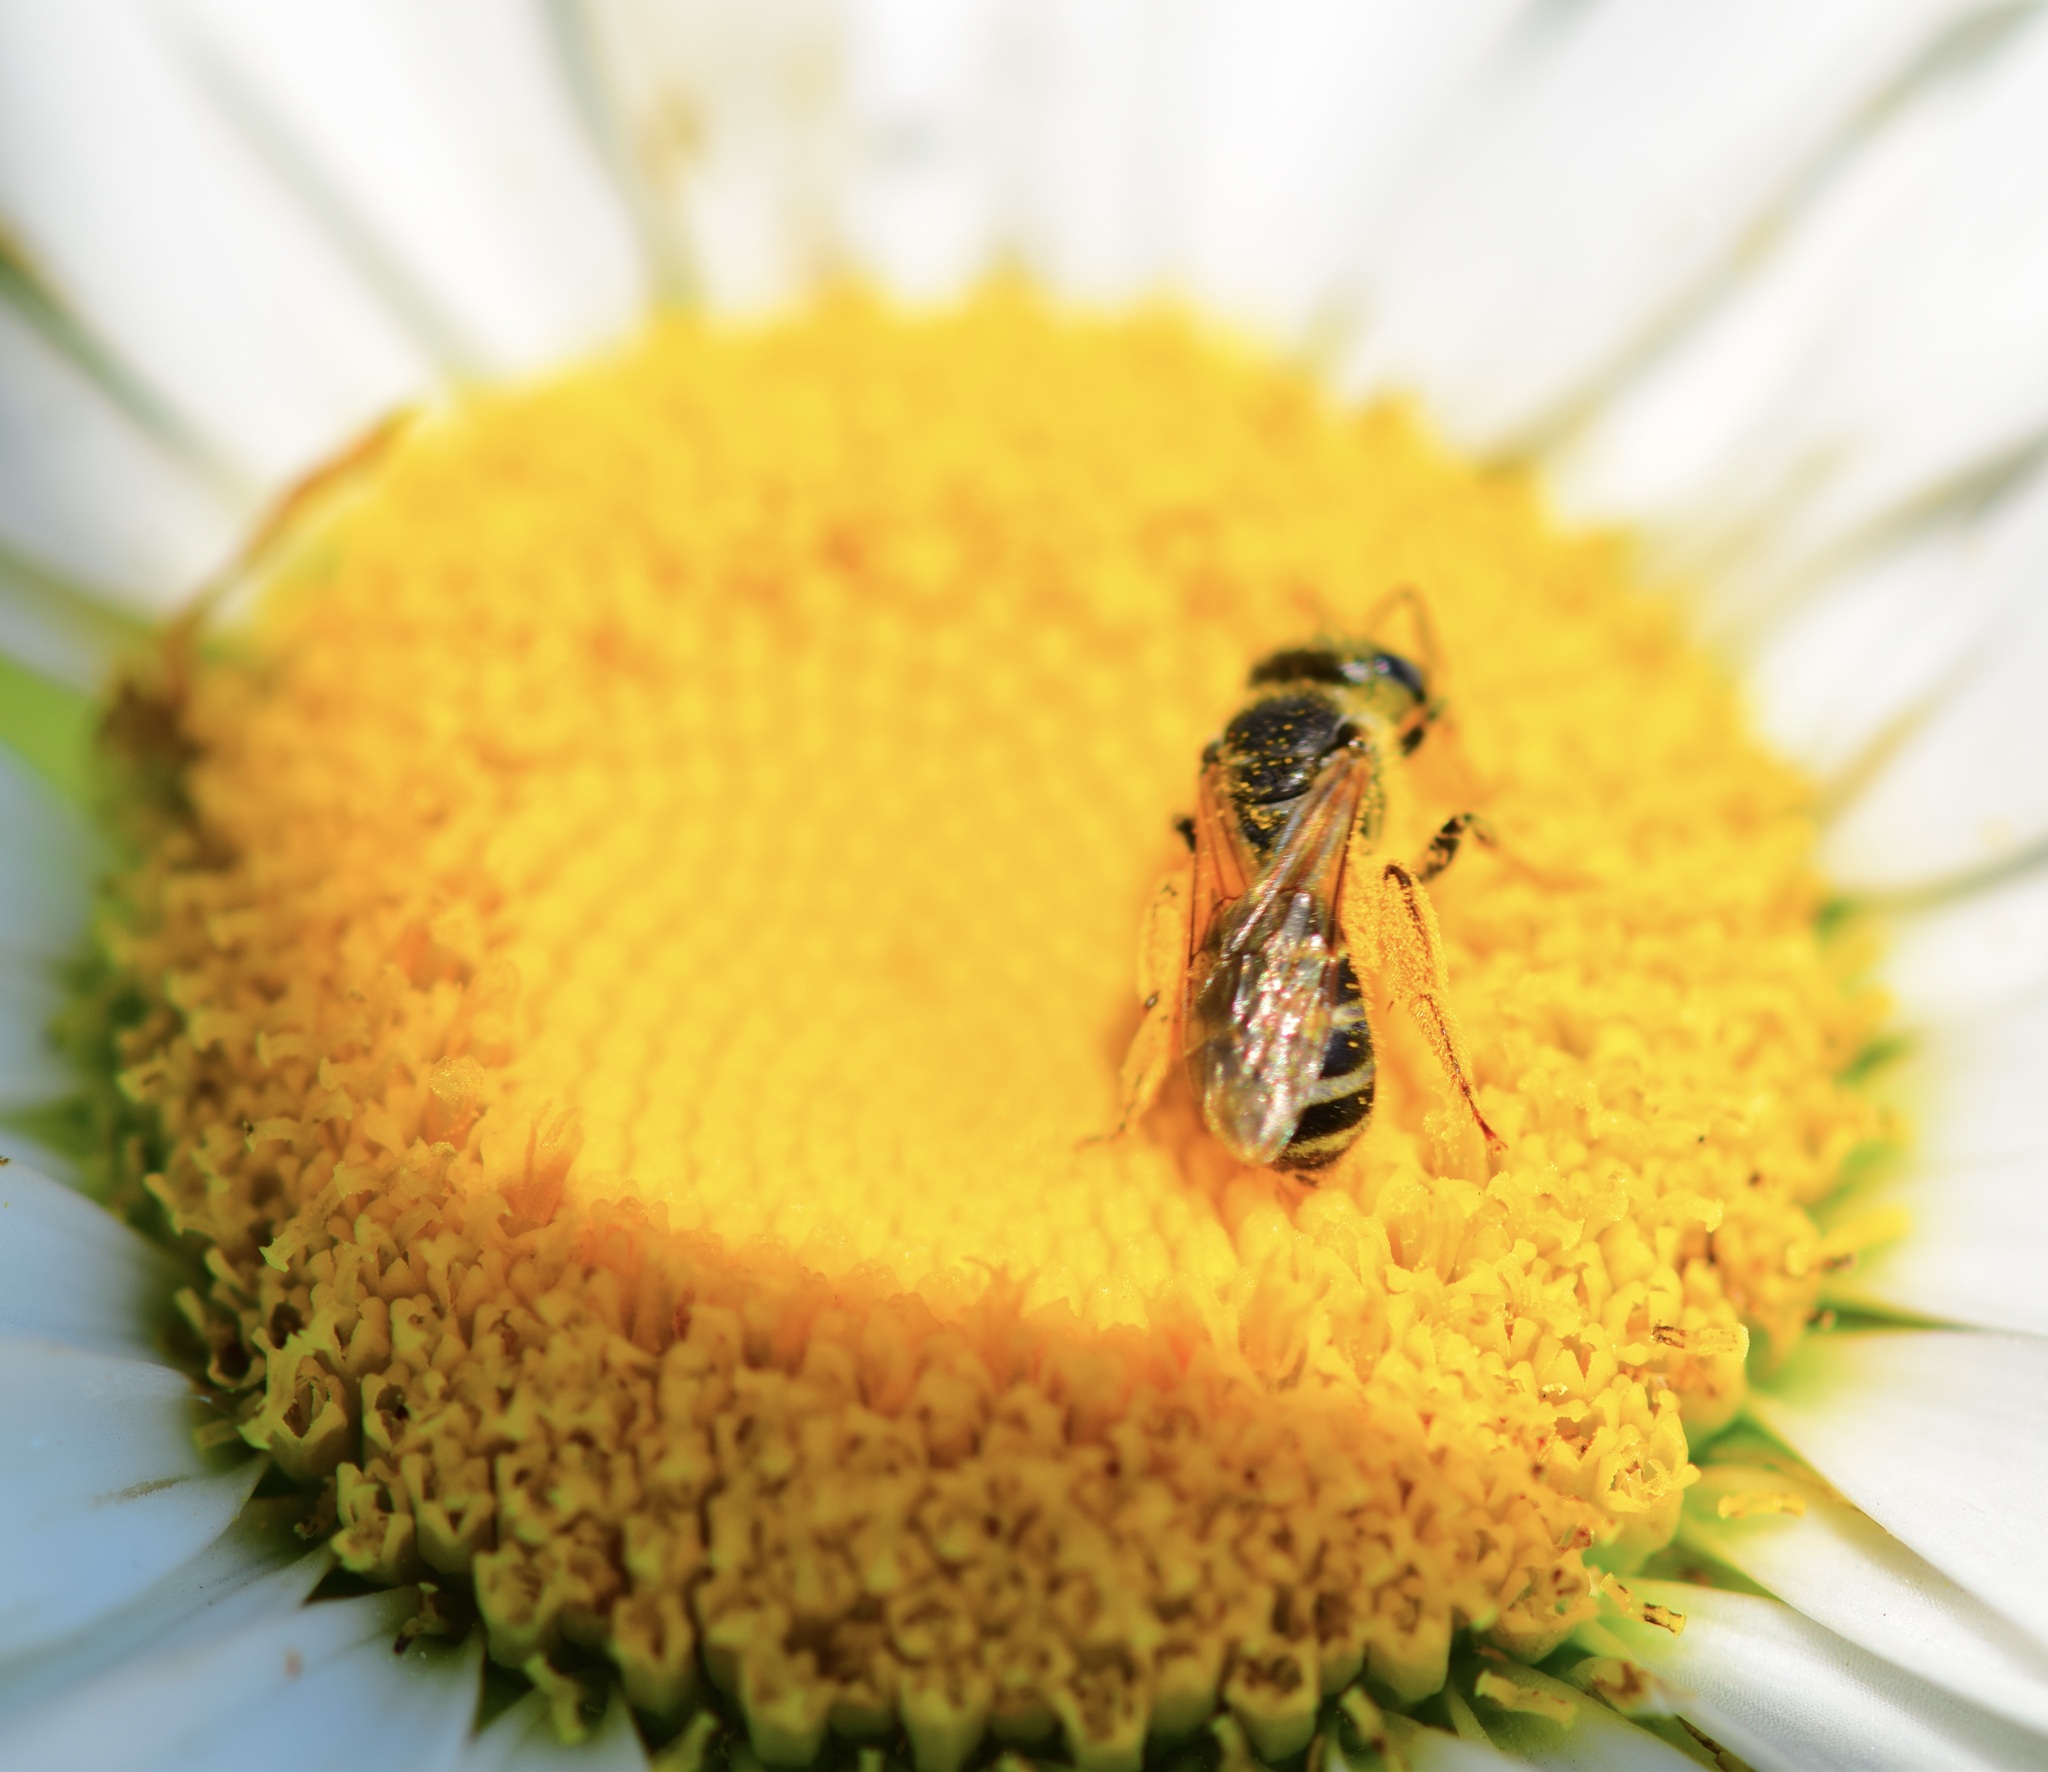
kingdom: Animalia
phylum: Arthropoda
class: Insecta
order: Hymenoptera
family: Halictidae
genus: Halictus
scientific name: Halictus ligatus
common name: Ligated furrow bee
